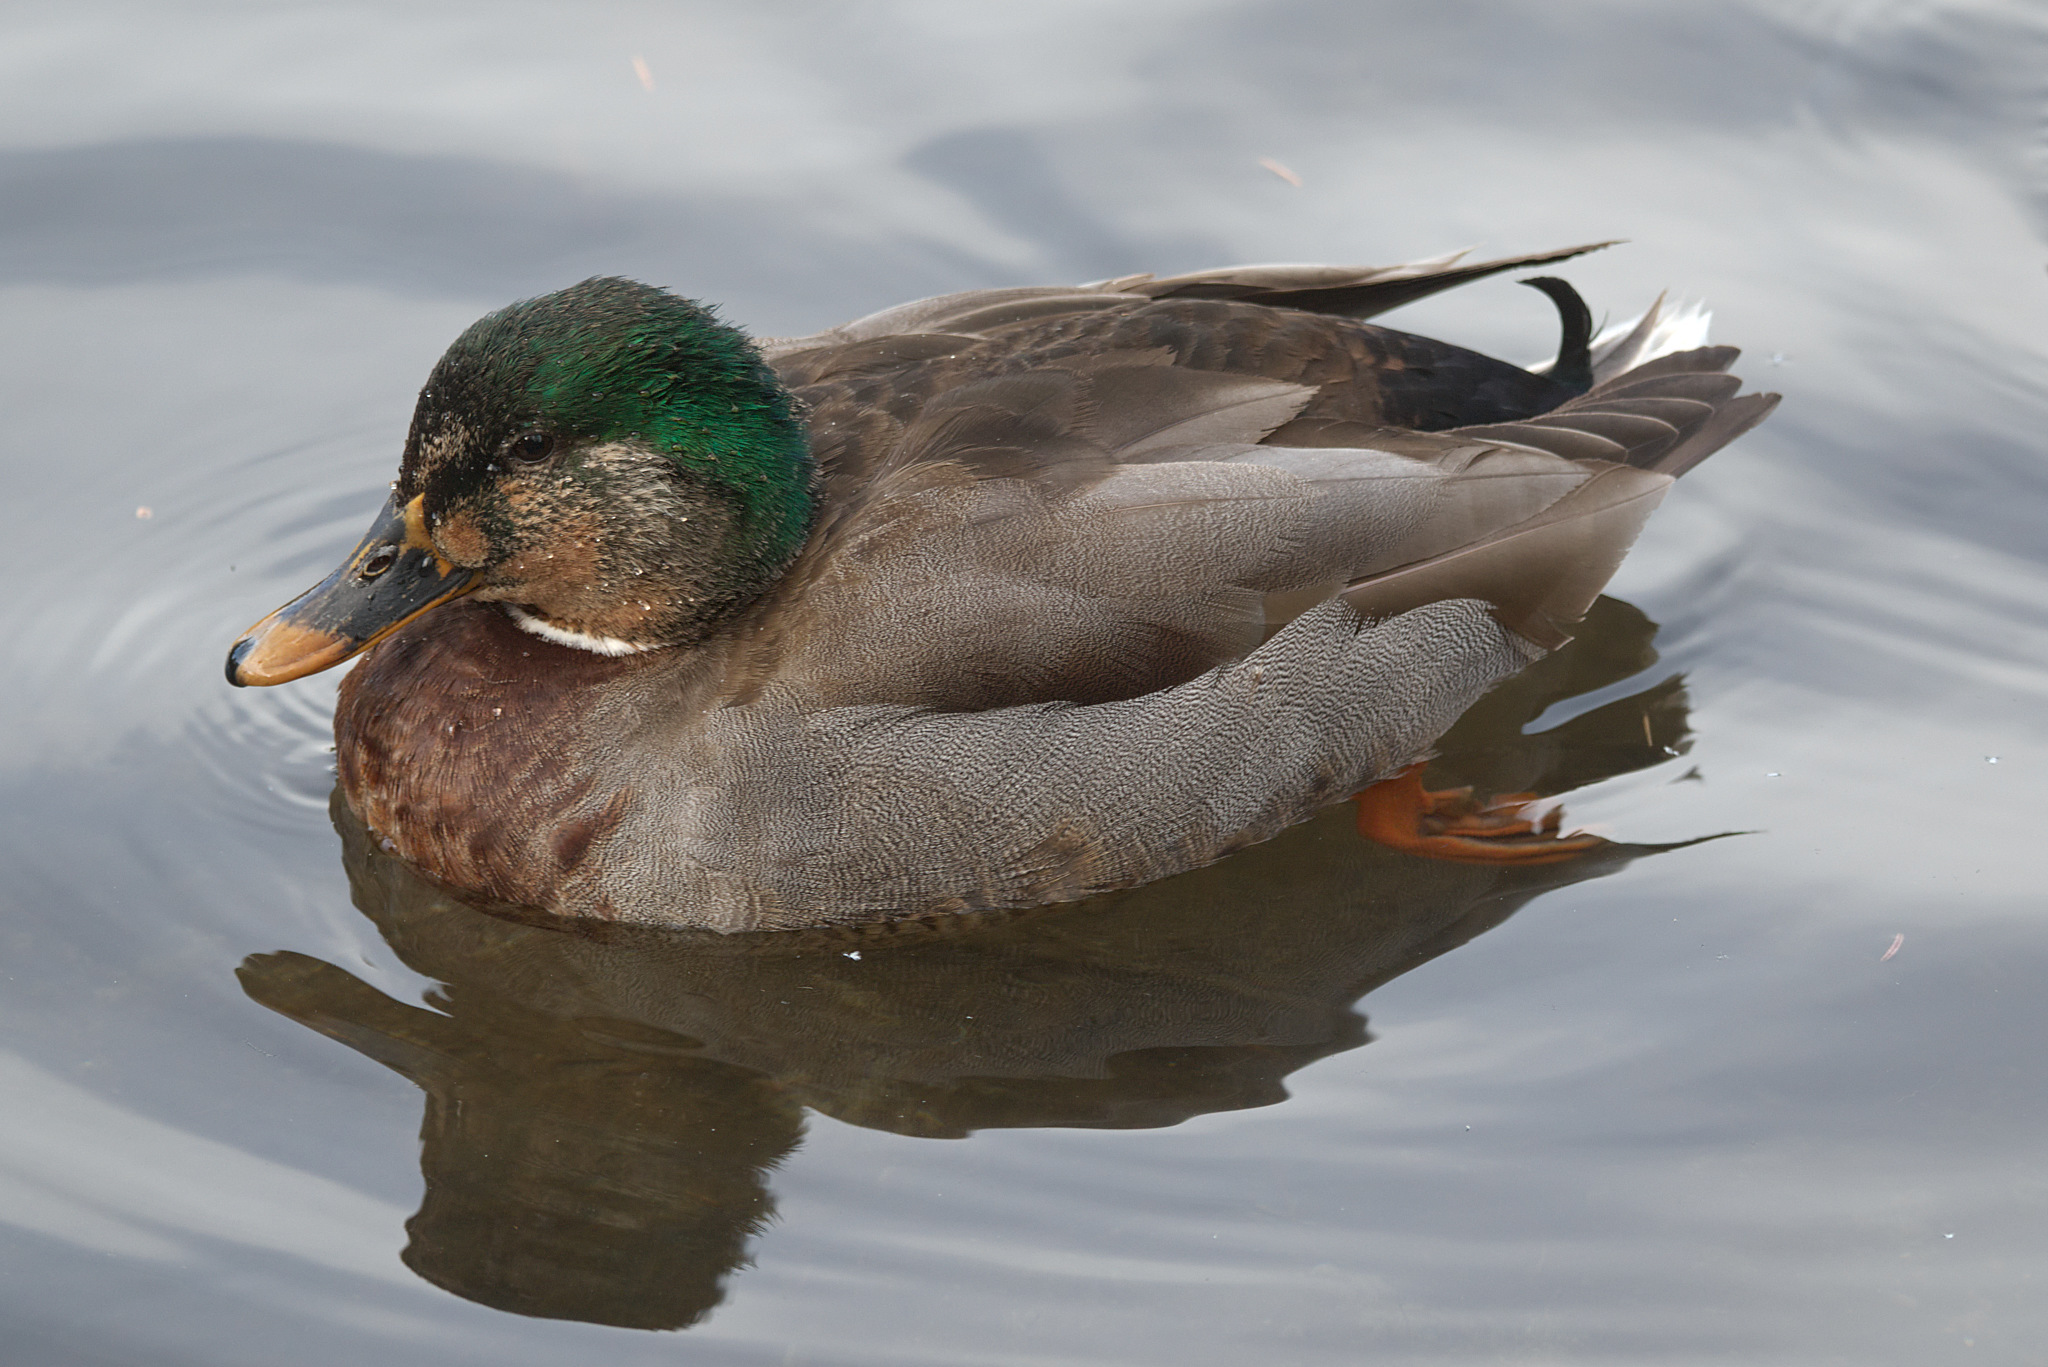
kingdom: Animalia
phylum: Chordata
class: Aves
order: Anseriformes
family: Anatidae
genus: Anas
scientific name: Anas platyrhynchos
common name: Mallard
